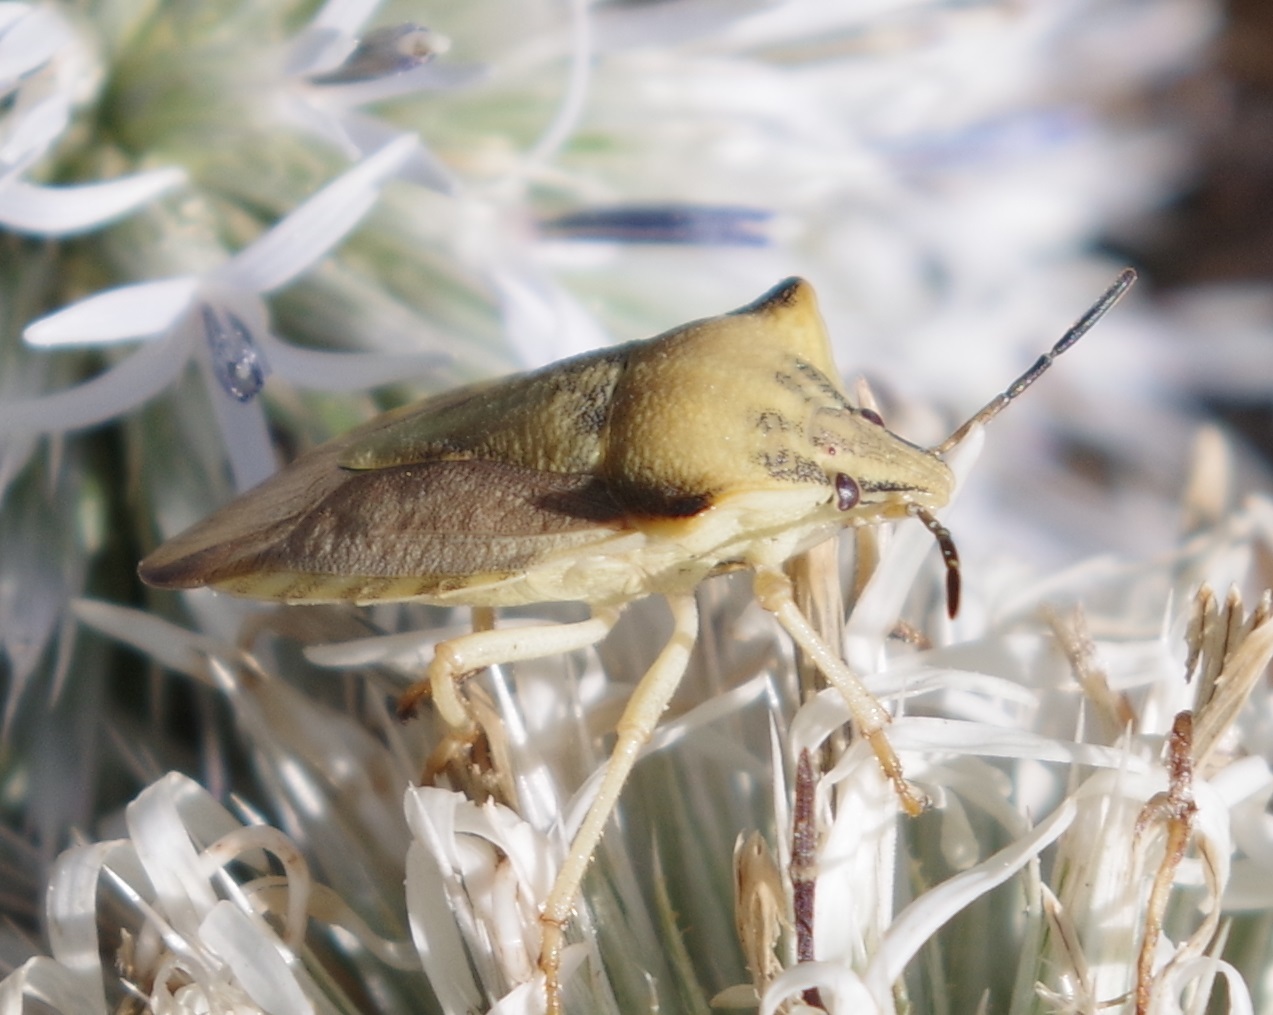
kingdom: Animalia
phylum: Arthropoda
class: Insecta
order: Hemiptera
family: Pentatomidae
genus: Carpocoris
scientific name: Carpocoris fuscispinus
